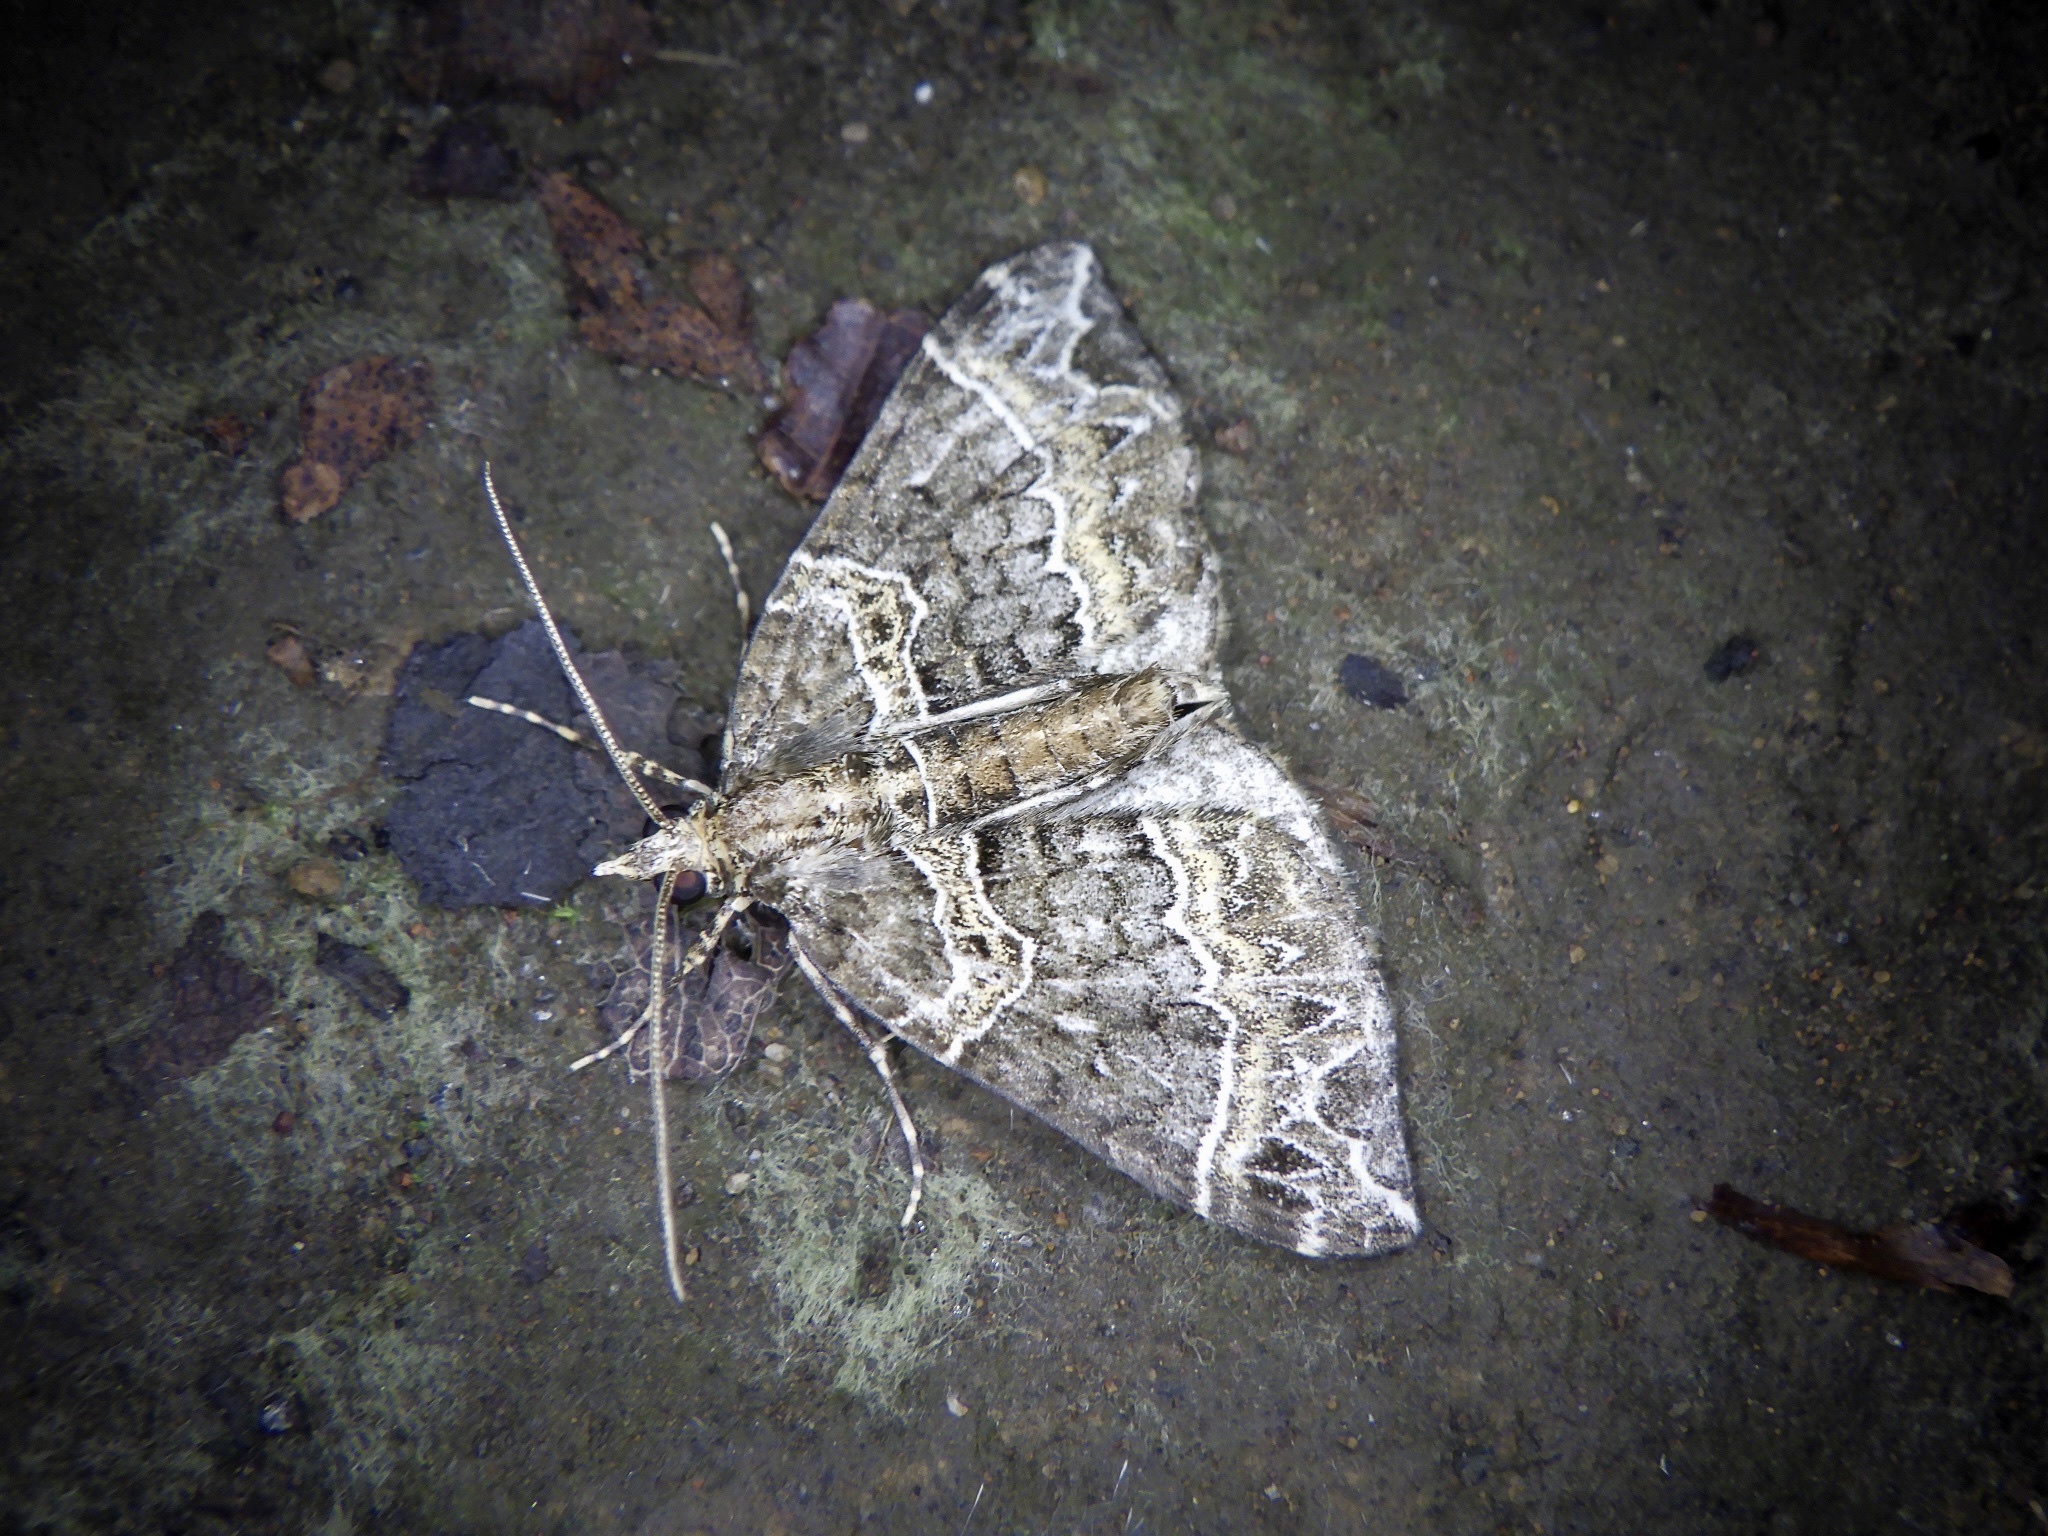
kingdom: Animalia
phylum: Arthropoda
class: Insecta
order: Lepidoptera
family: Geometridae
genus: Ecliptopera
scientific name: Ecliptopera umbrosaria
